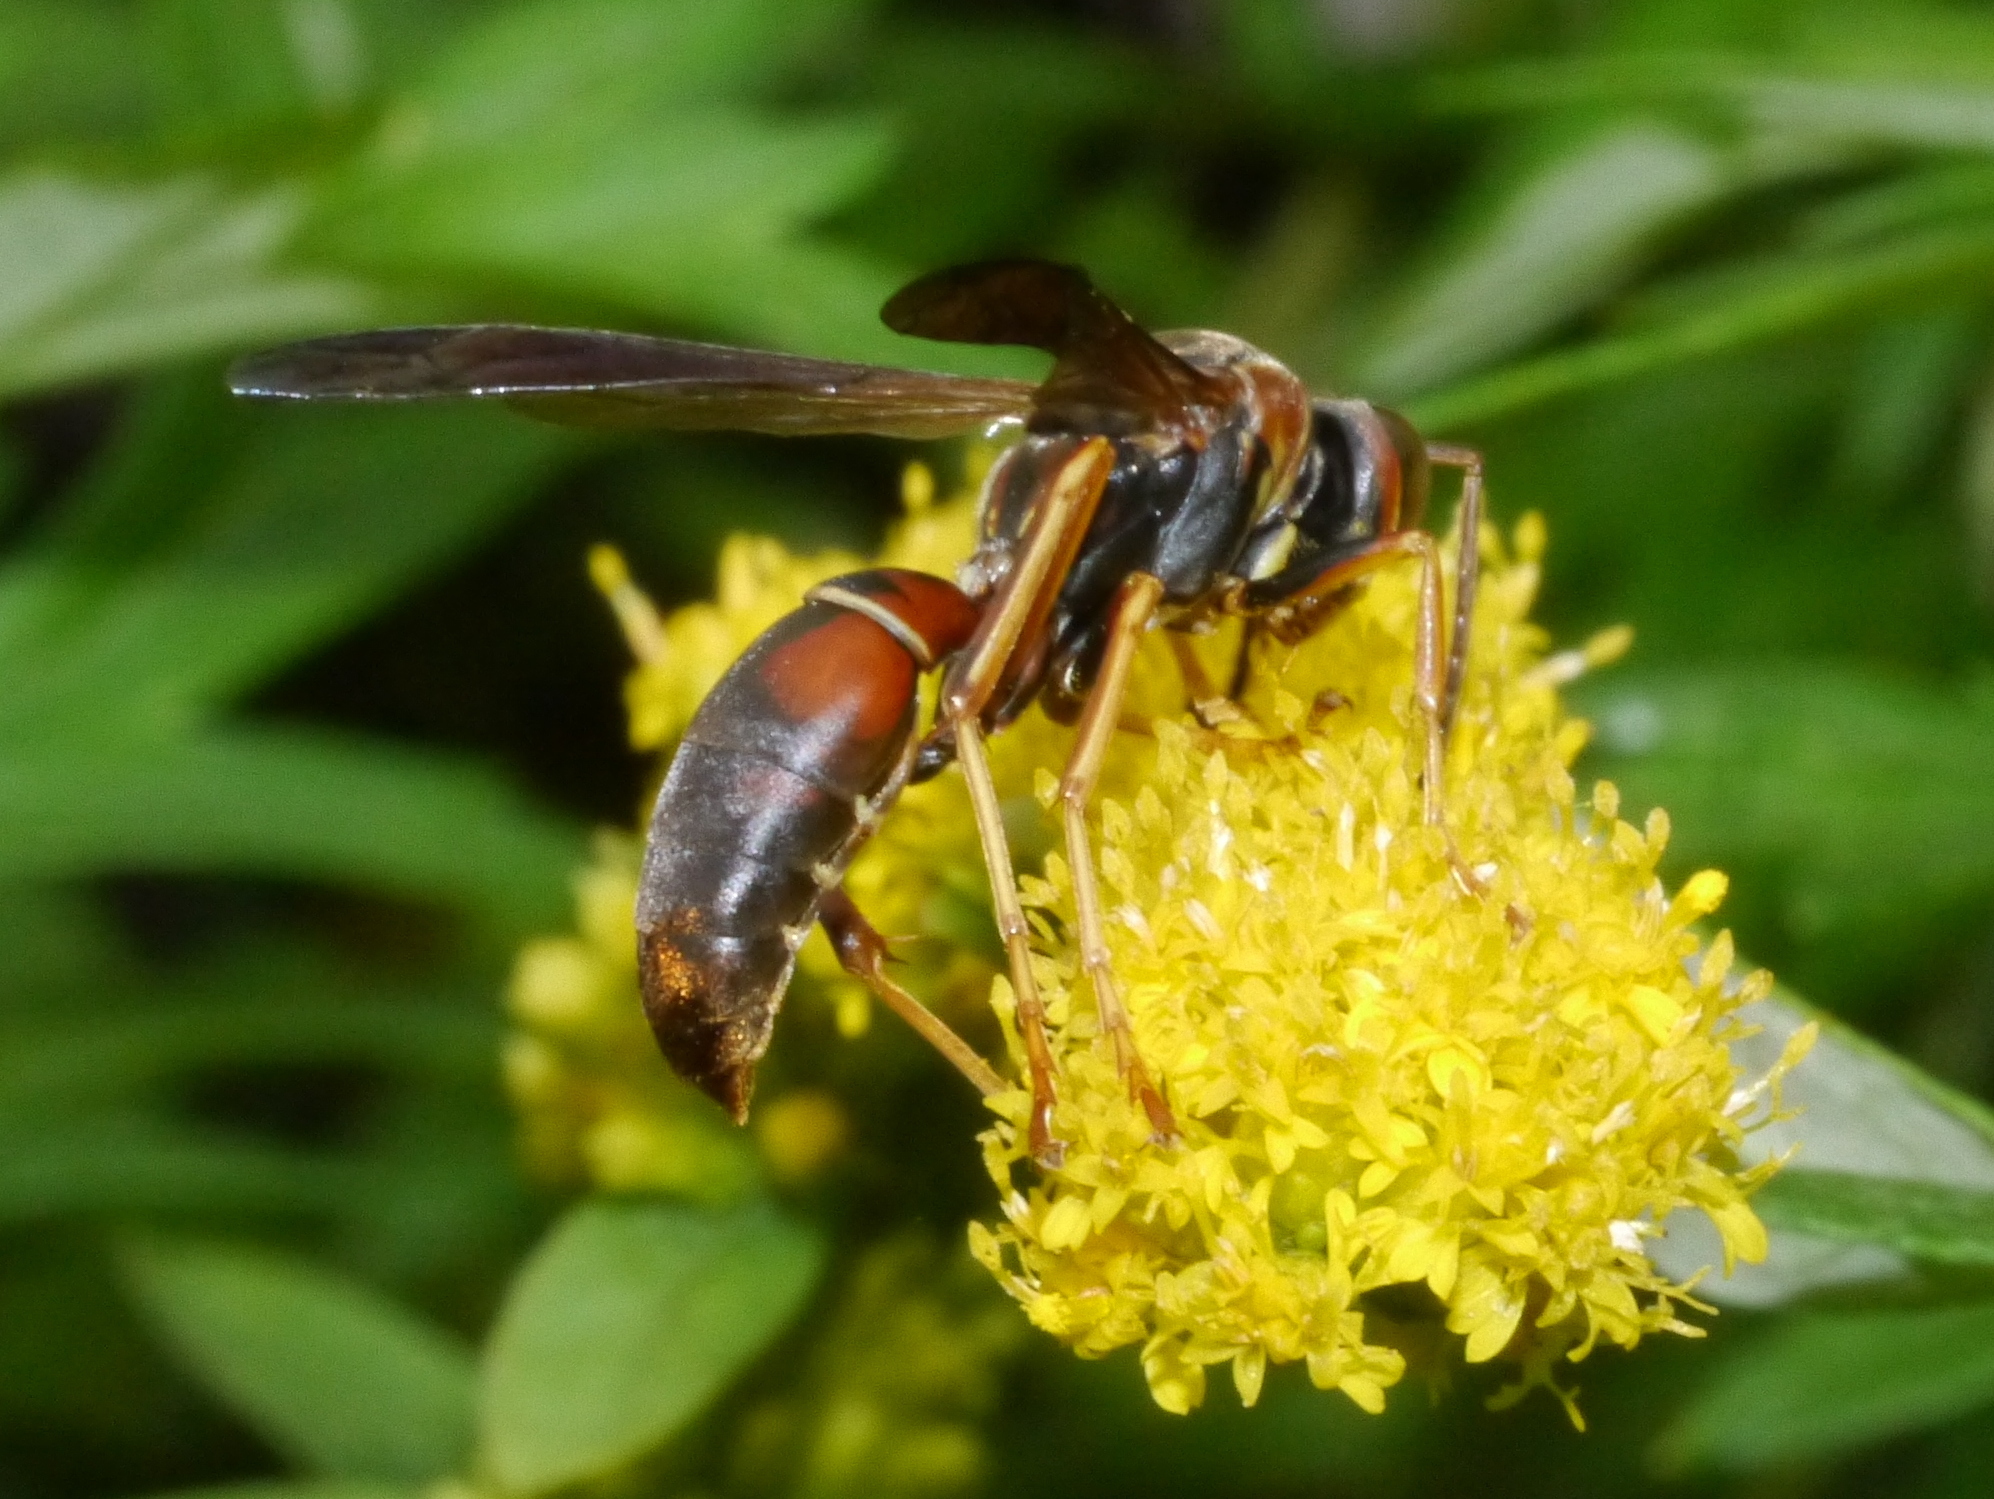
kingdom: Animalia
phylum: Arthropoda
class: Insecta
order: Hymenoptera
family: Eumenidae
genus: Polistes
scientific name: Polistes fuscatus
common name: Dark paper wasp
